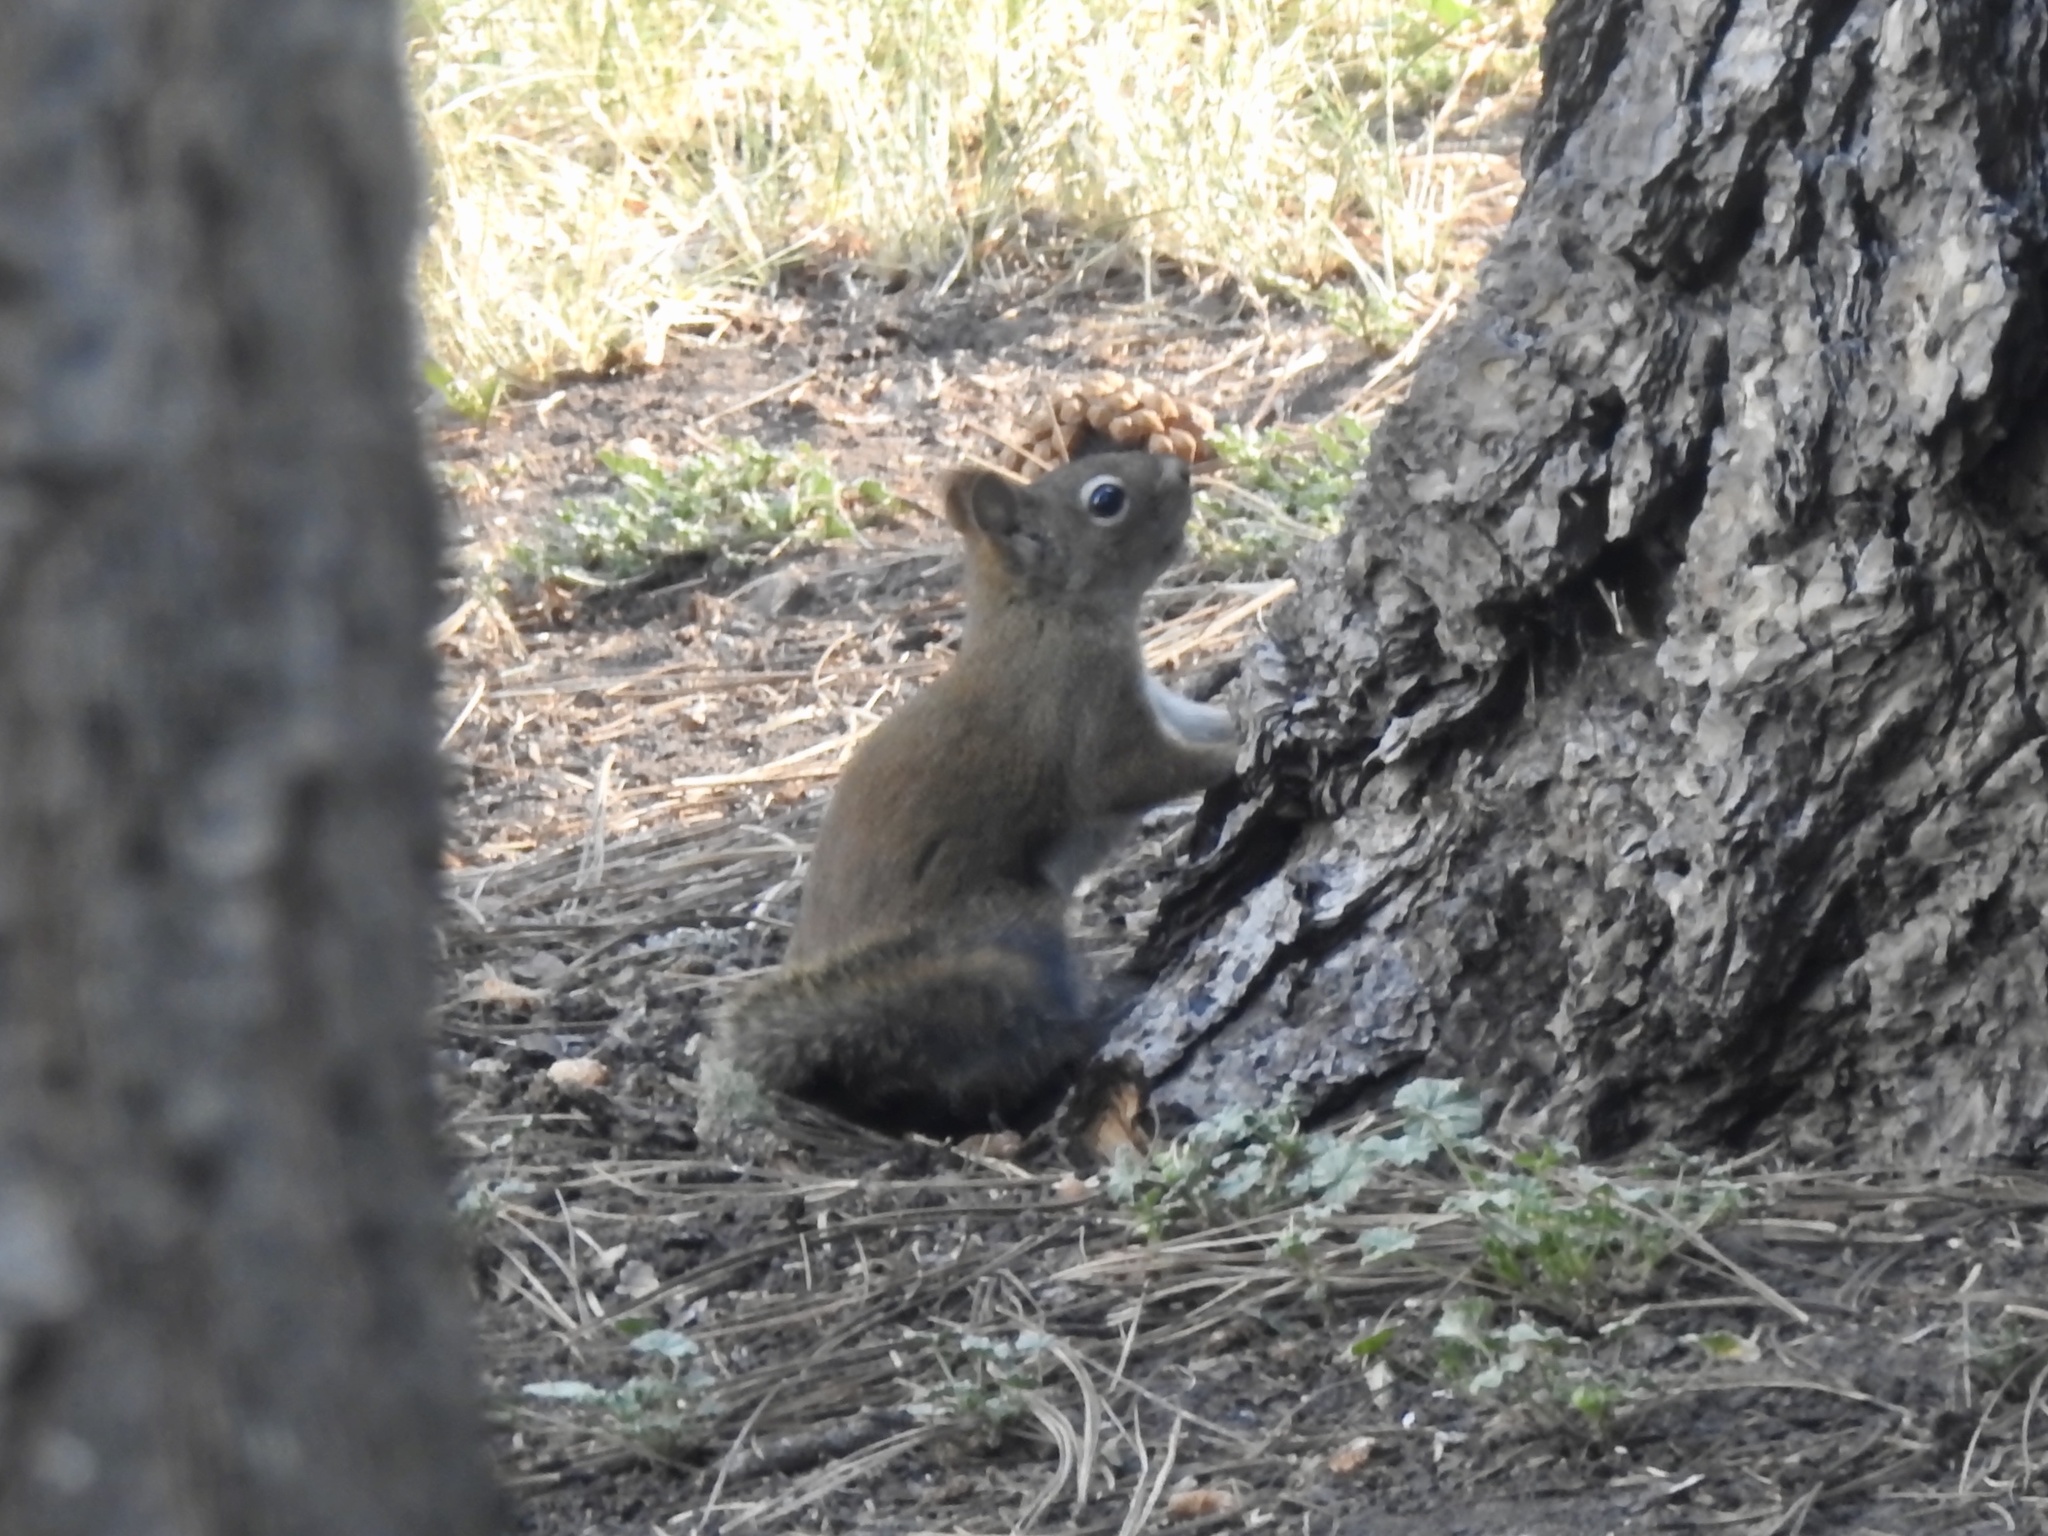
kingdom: Animalia
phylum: Chordata
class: Mammalia
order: Rodentia
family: Sciuridae
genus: Tamiasciurus
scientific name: Tamiasciurus hudsonicus
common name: Red squirrel
